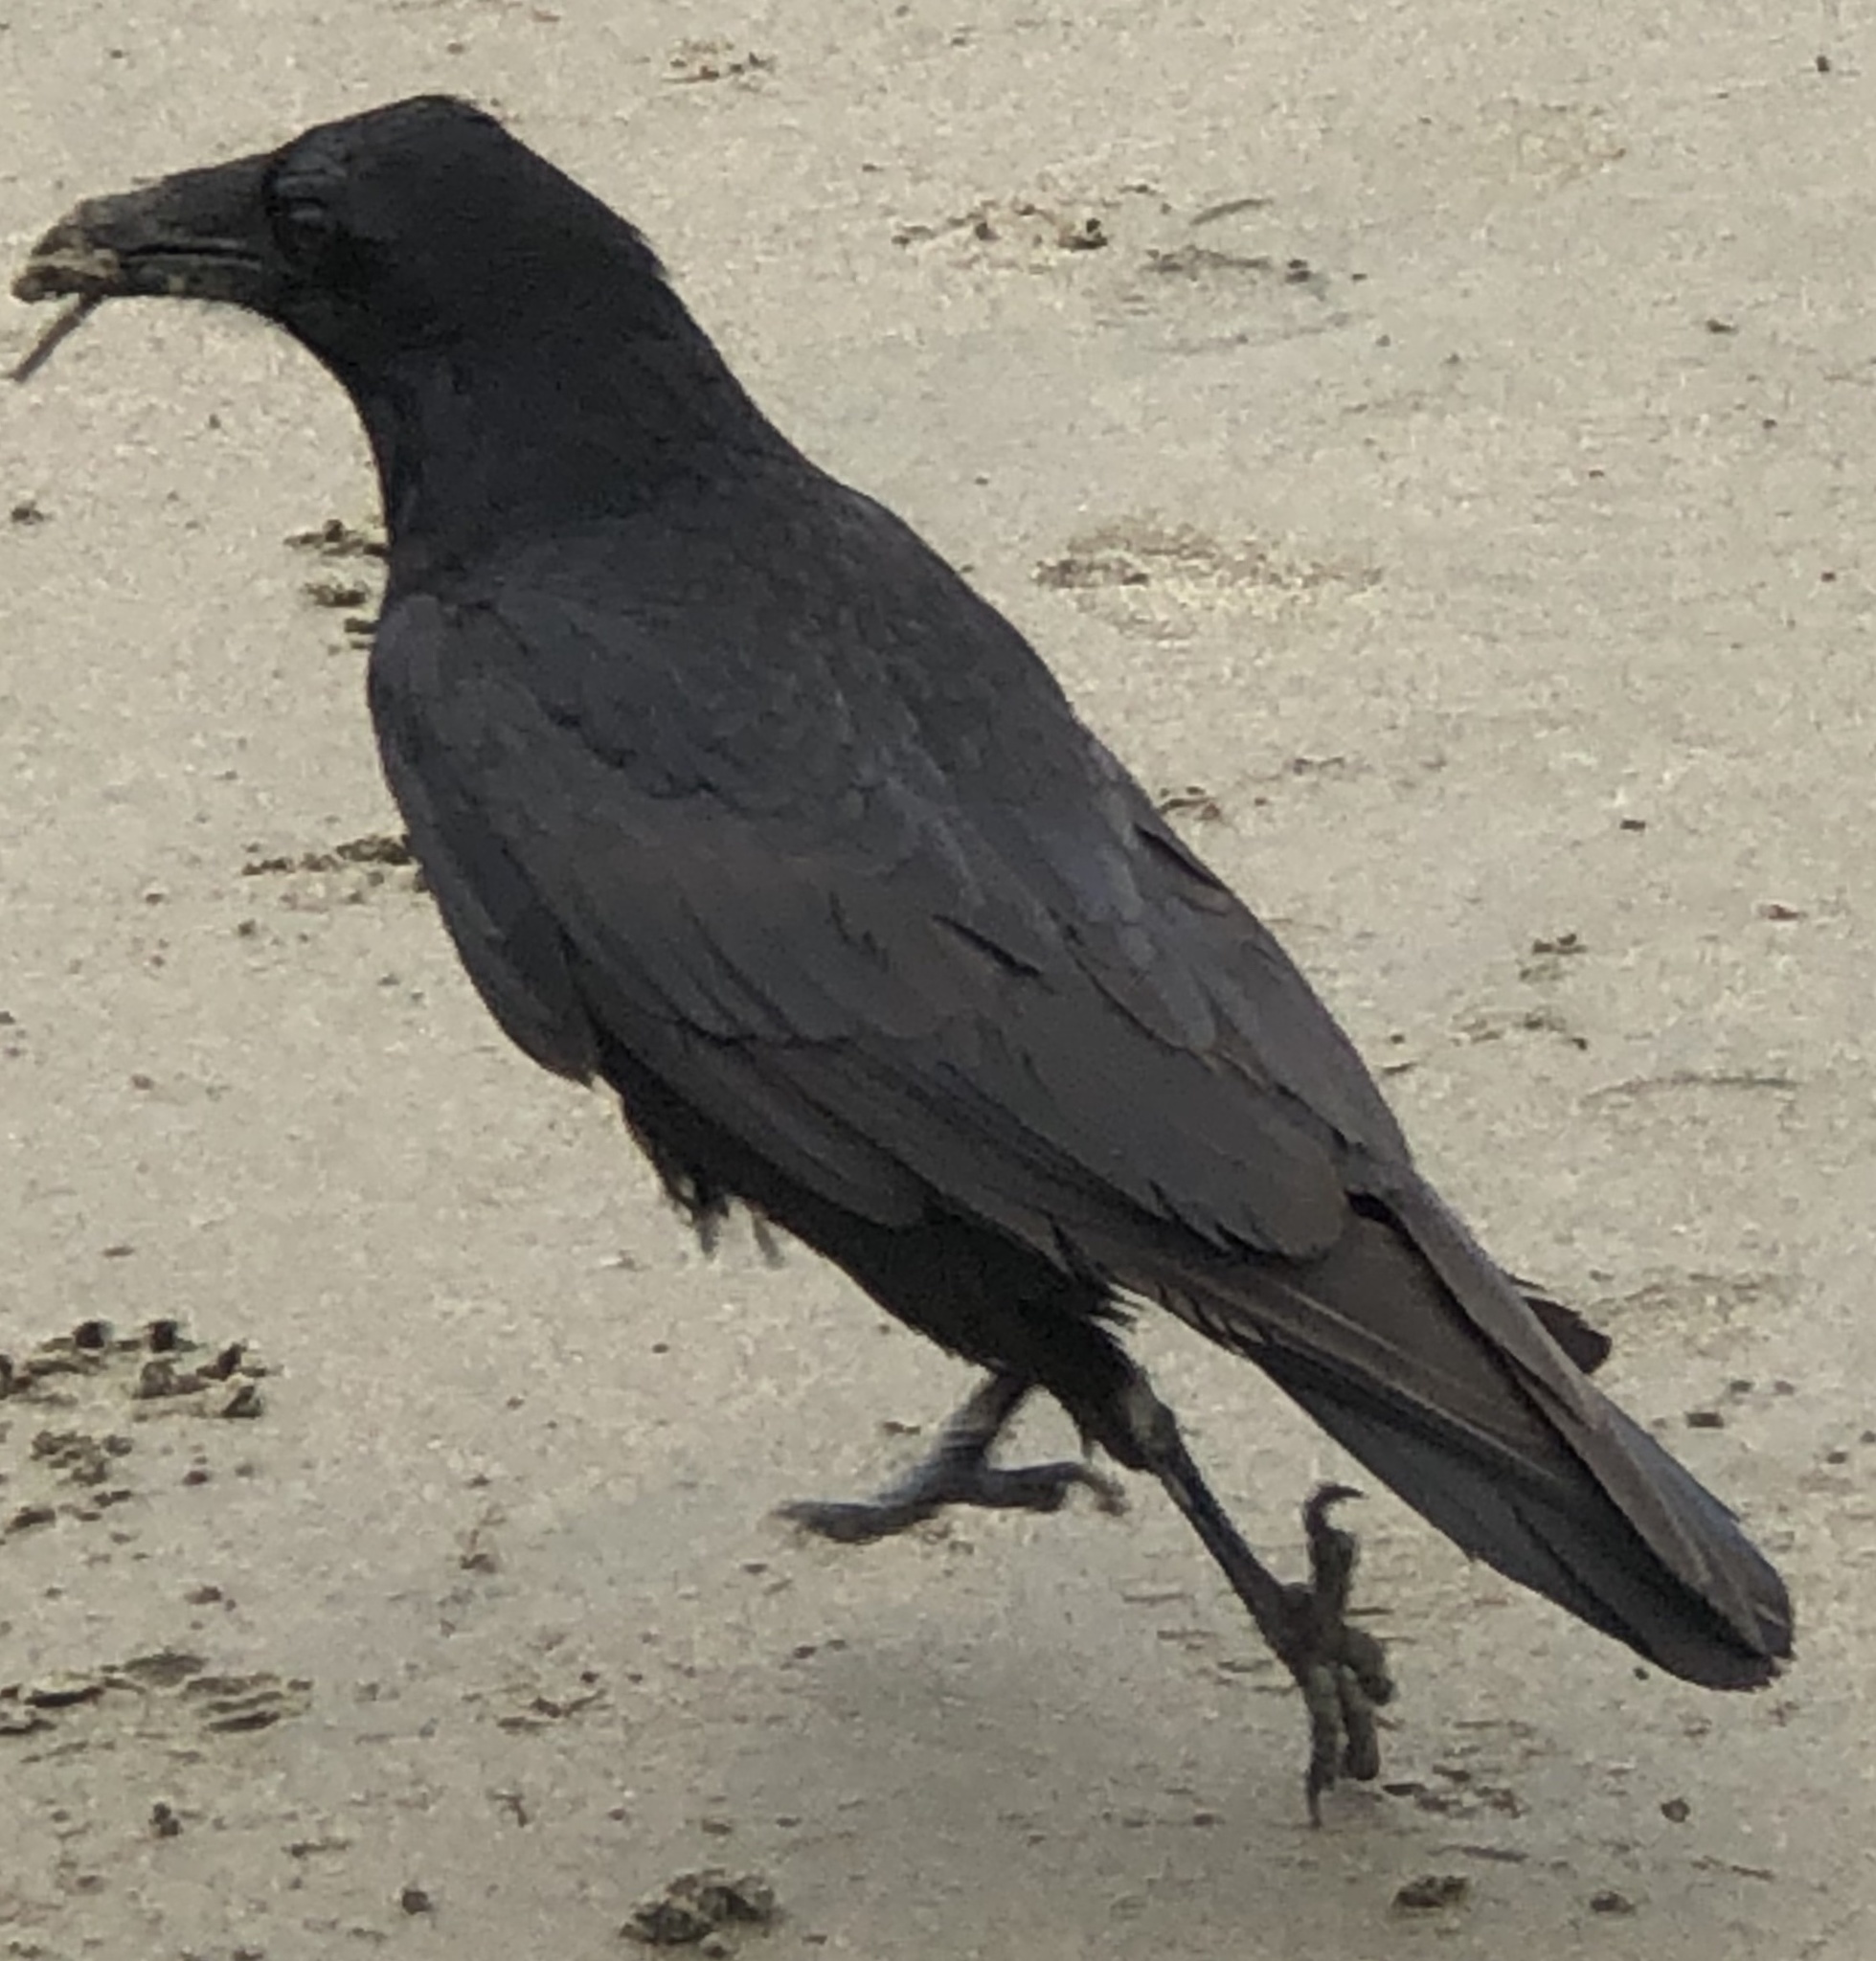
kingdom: Animalia
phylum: Chordata
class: Aves
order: Passeriformes
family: Corvidae
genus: Corvus
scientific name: Corvus corax
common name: Common raven
